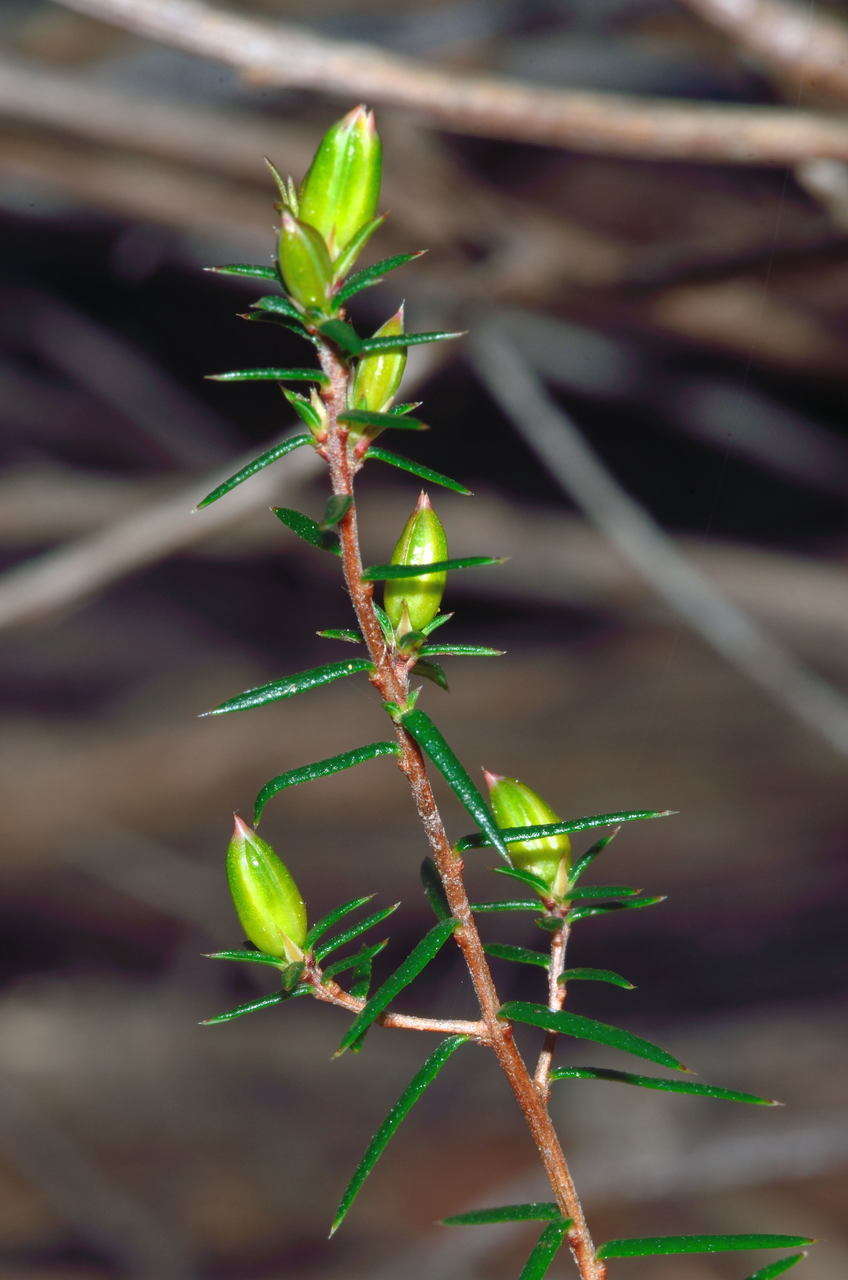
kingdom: Plantae
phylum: Tracheophyta
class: Magnoliopsida
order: Dilleniales
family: Dilleniaceae
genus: Hibbertia
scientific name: Hibbertia exutiacies
